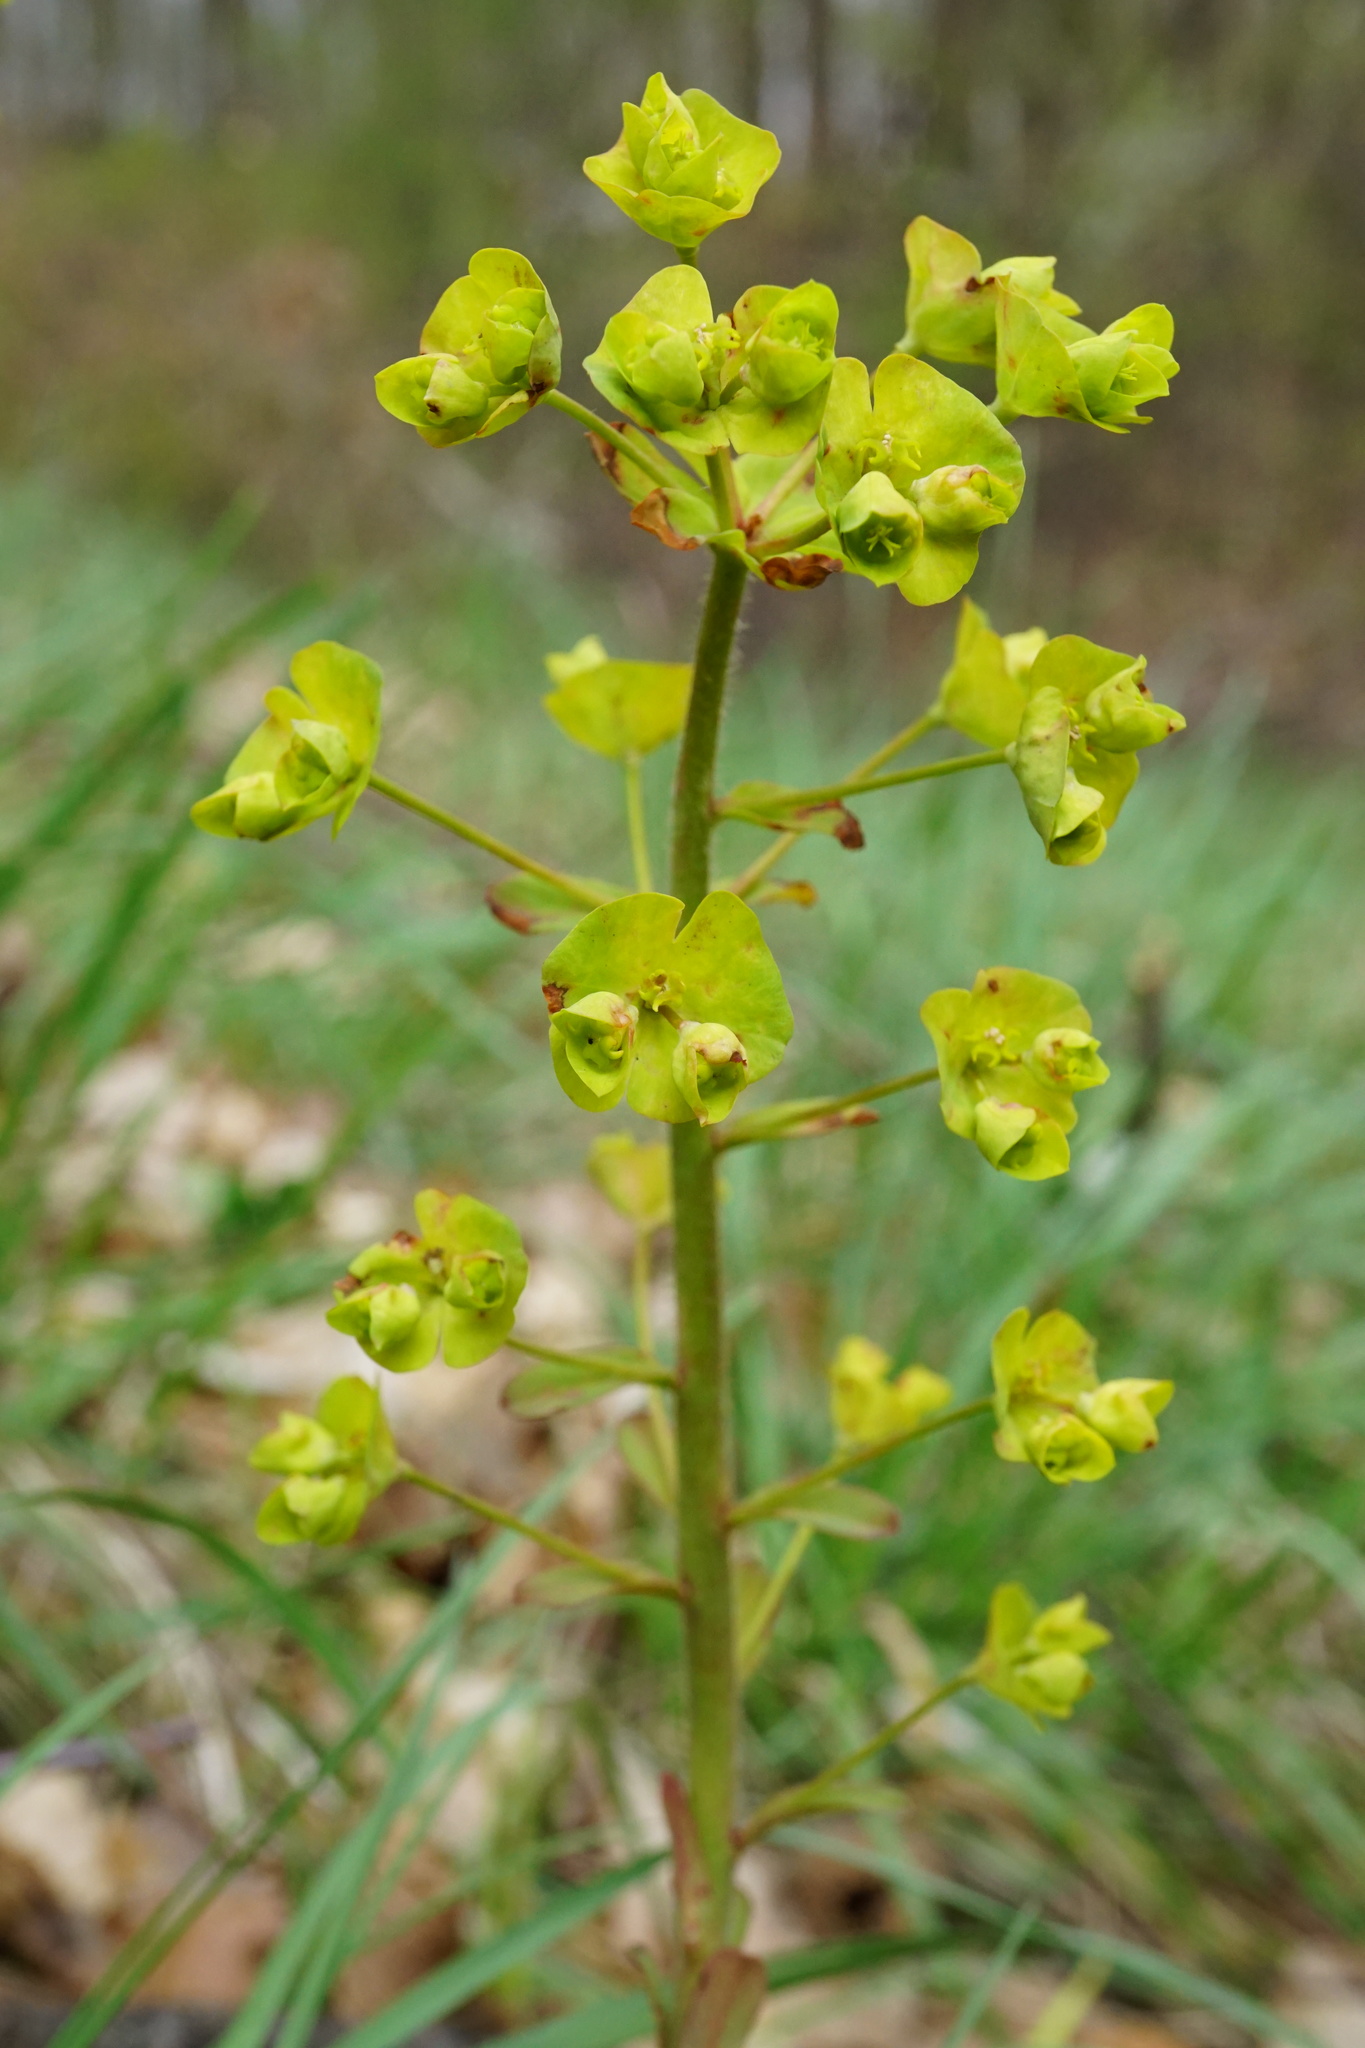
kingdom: Plantae
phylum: Tracheophyta
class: Magnoliopsida
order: Malpighiales
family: Euphorbiaceae
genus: Euphorbia
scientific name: Euphorbia amygdaloides
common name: Wood spurge
